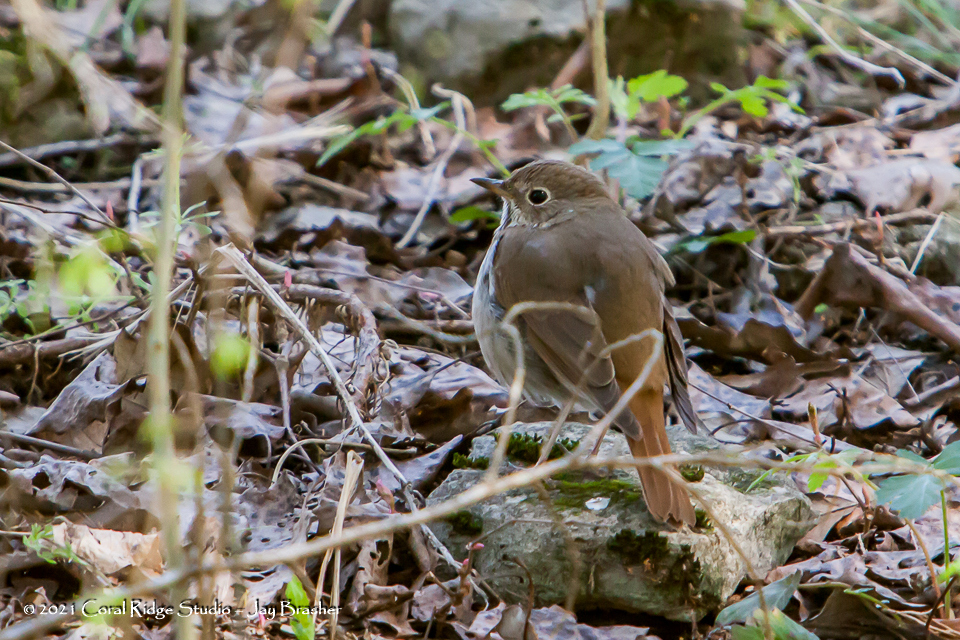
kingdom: Animalia
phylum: Chordata
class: Aves
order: Passeriformes
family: Turdidae
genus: Catharus
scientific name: Catharus guttatus
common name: Hermit thrush
